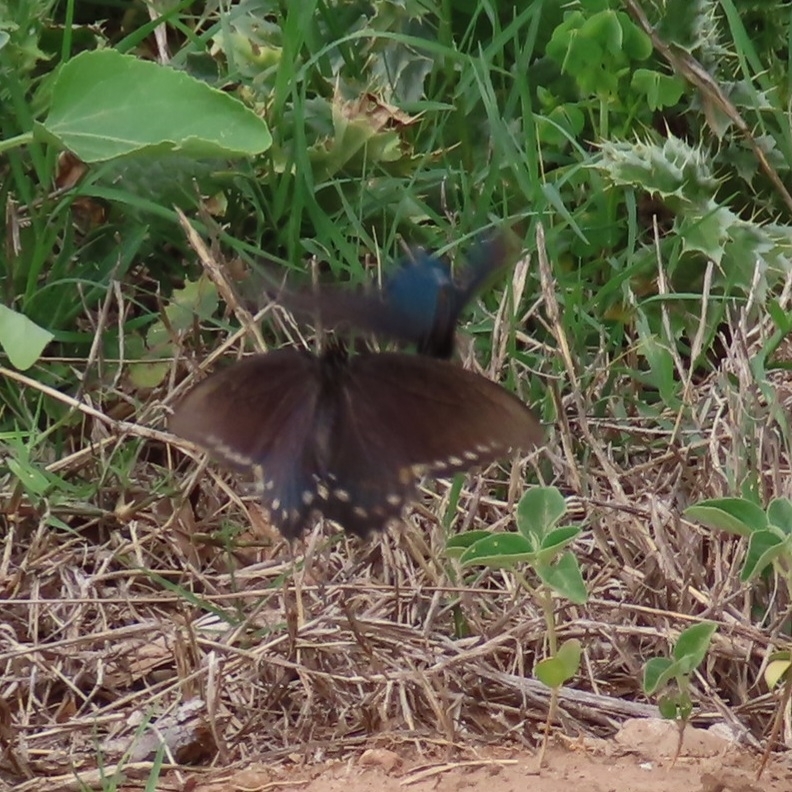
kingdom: Animalia
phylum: Arthropoda
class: Insecta
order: Lepidoptera
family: Papilionidae
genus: Battus
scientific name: Battus philenor
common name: Pipevine swallowtail
